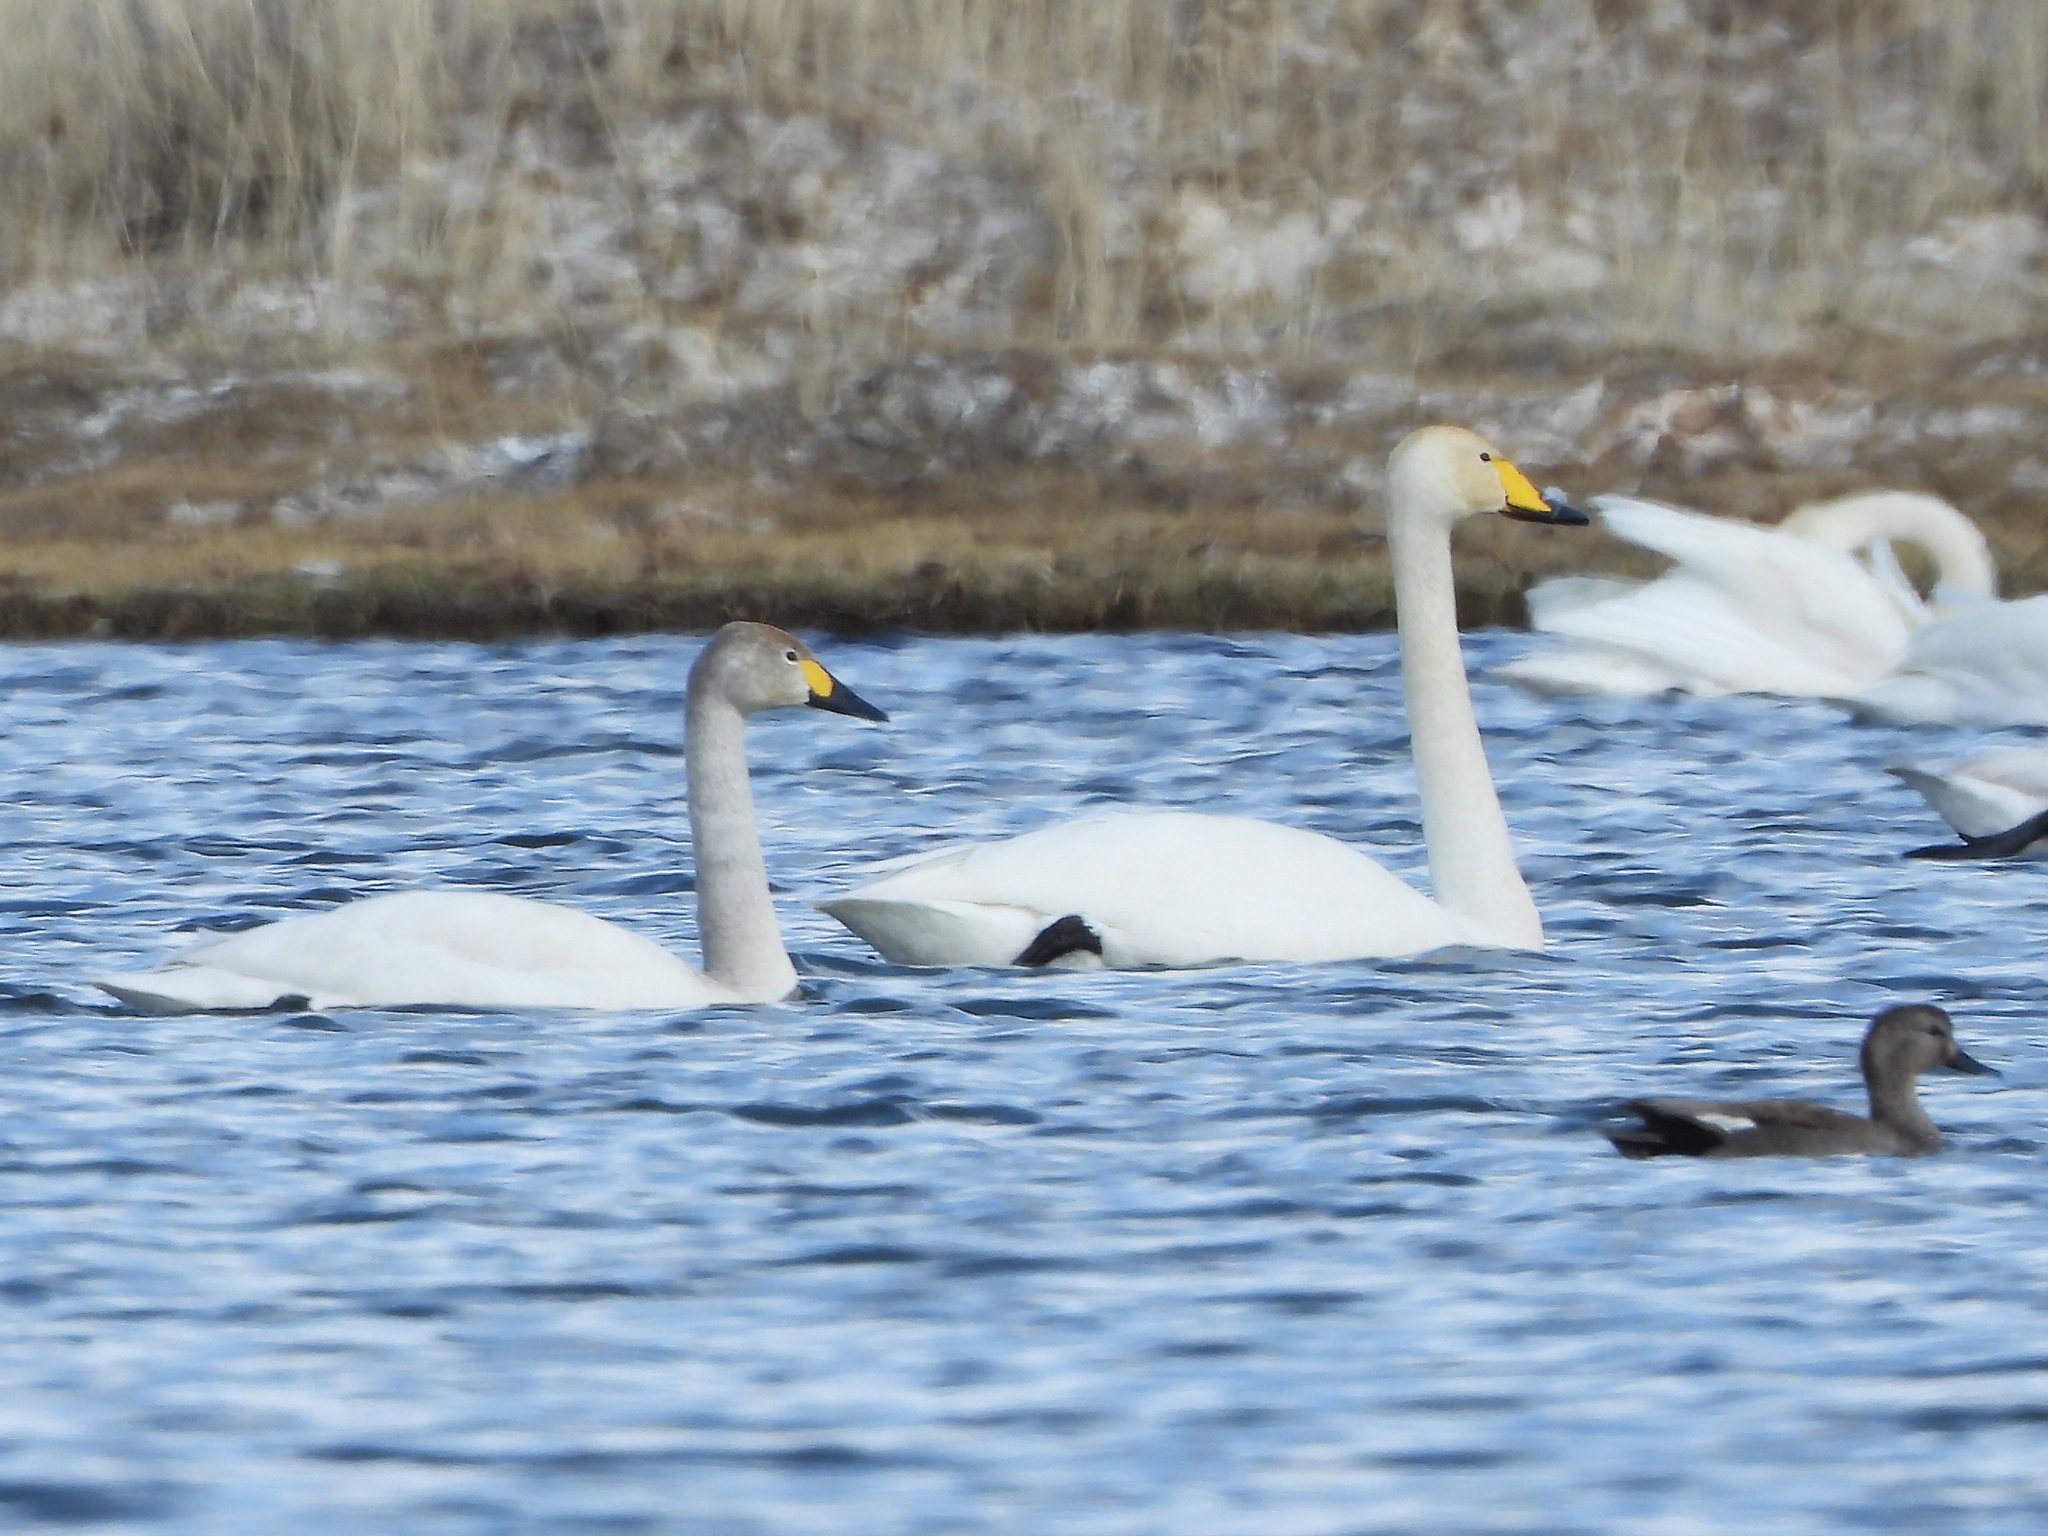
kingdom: Animalia
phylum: Chordata
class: Aves
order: Anseriformes
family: Anatidae
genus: Cygnus
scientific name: Cygnus columbianus
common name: Tundra swan
